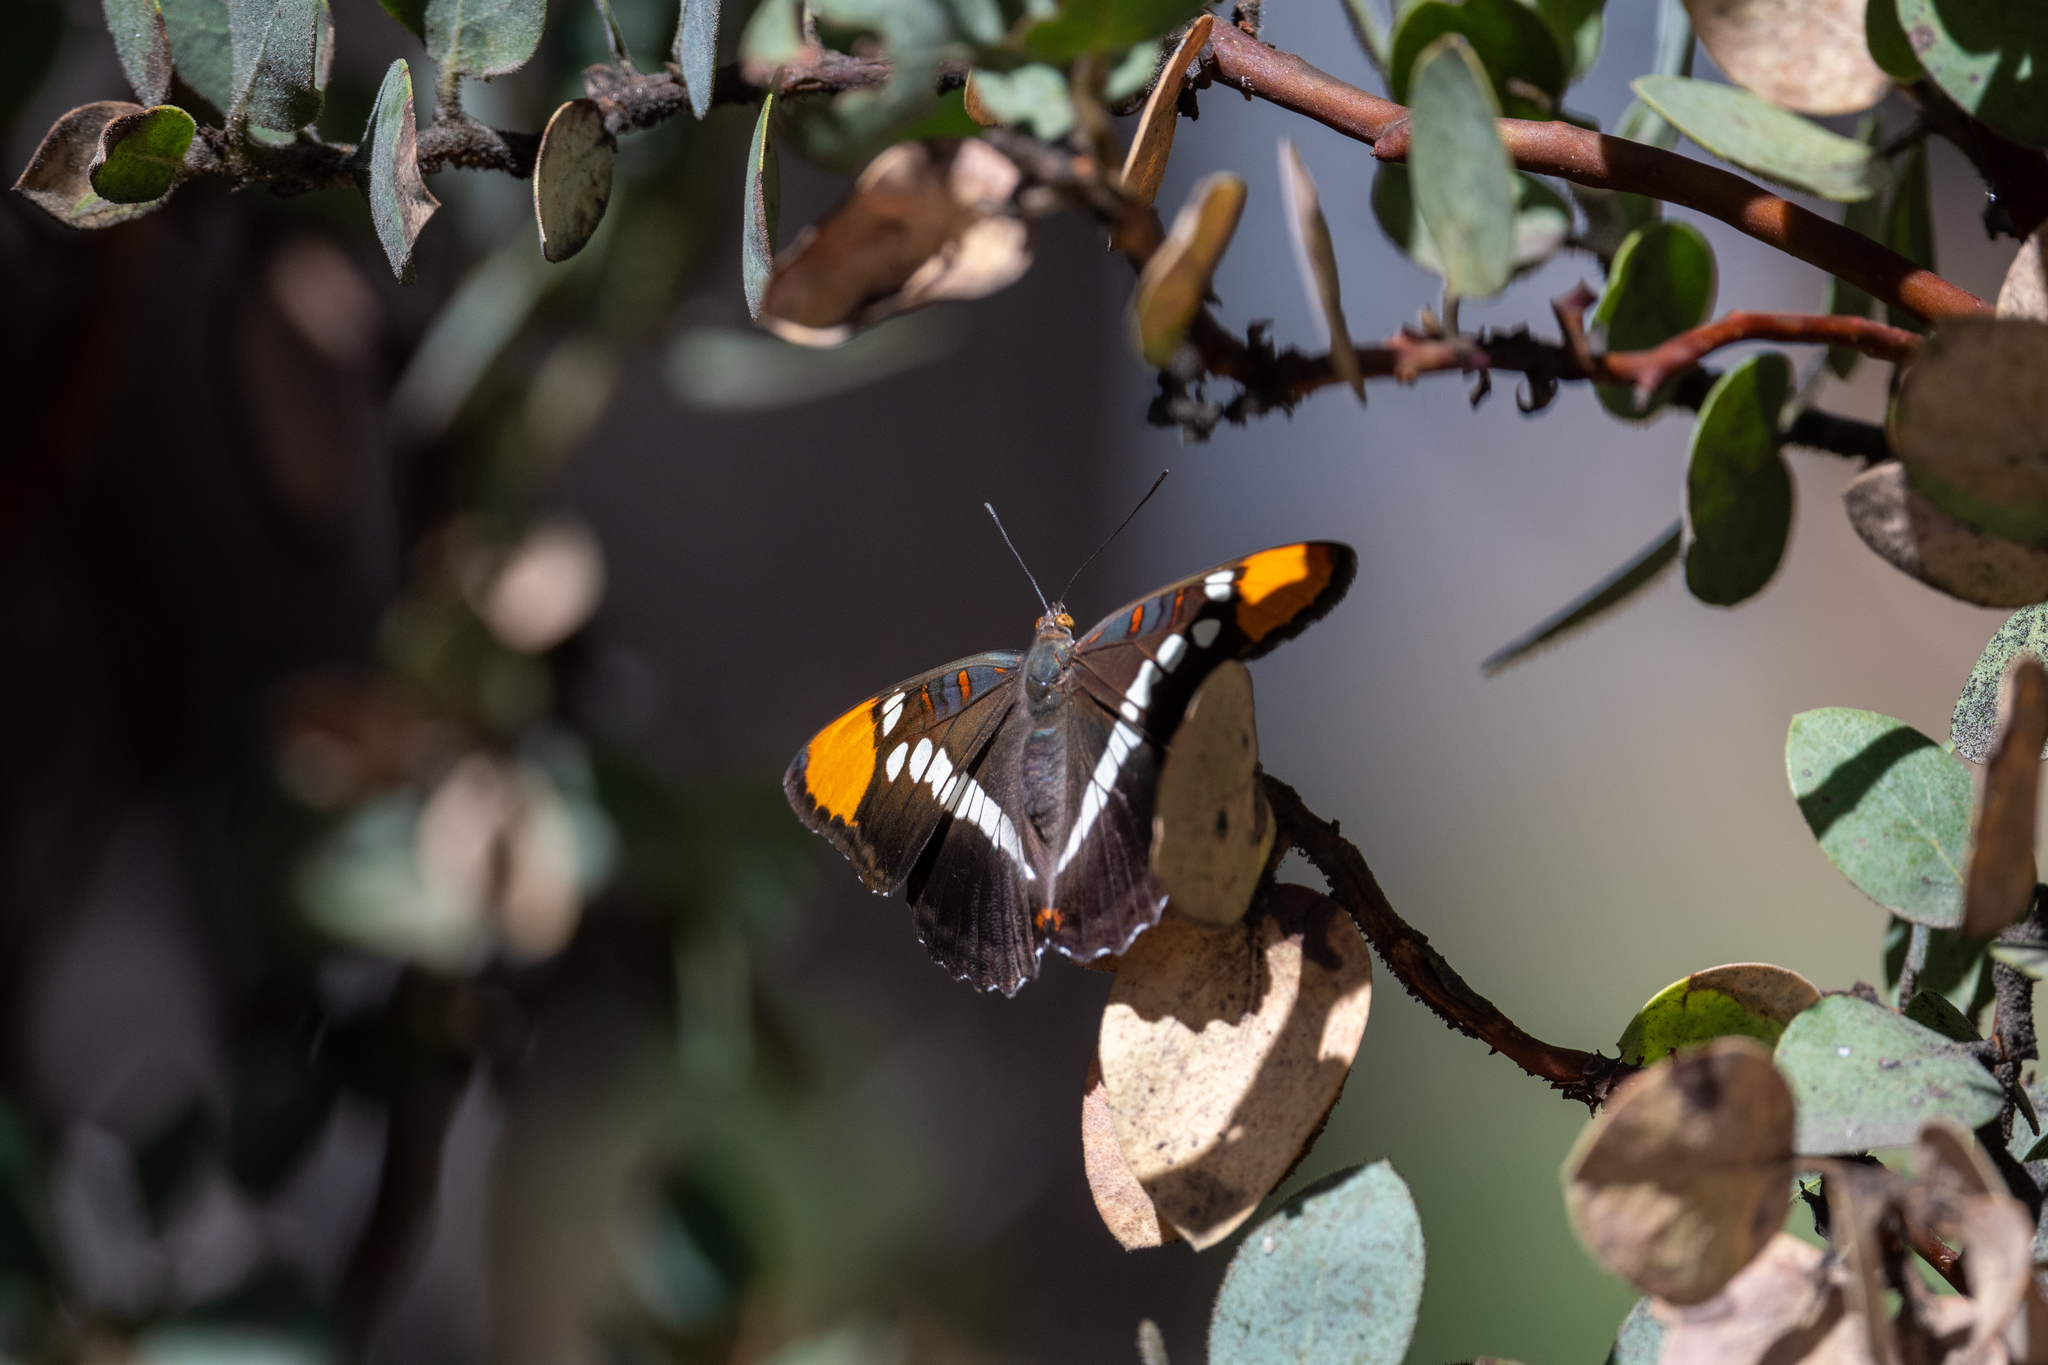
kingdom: Animalia
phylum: Arthropoda
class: Insecta
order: Lepidoptera
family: Nymphalidae
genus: Limenitis
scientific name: Limenitis bredowii
